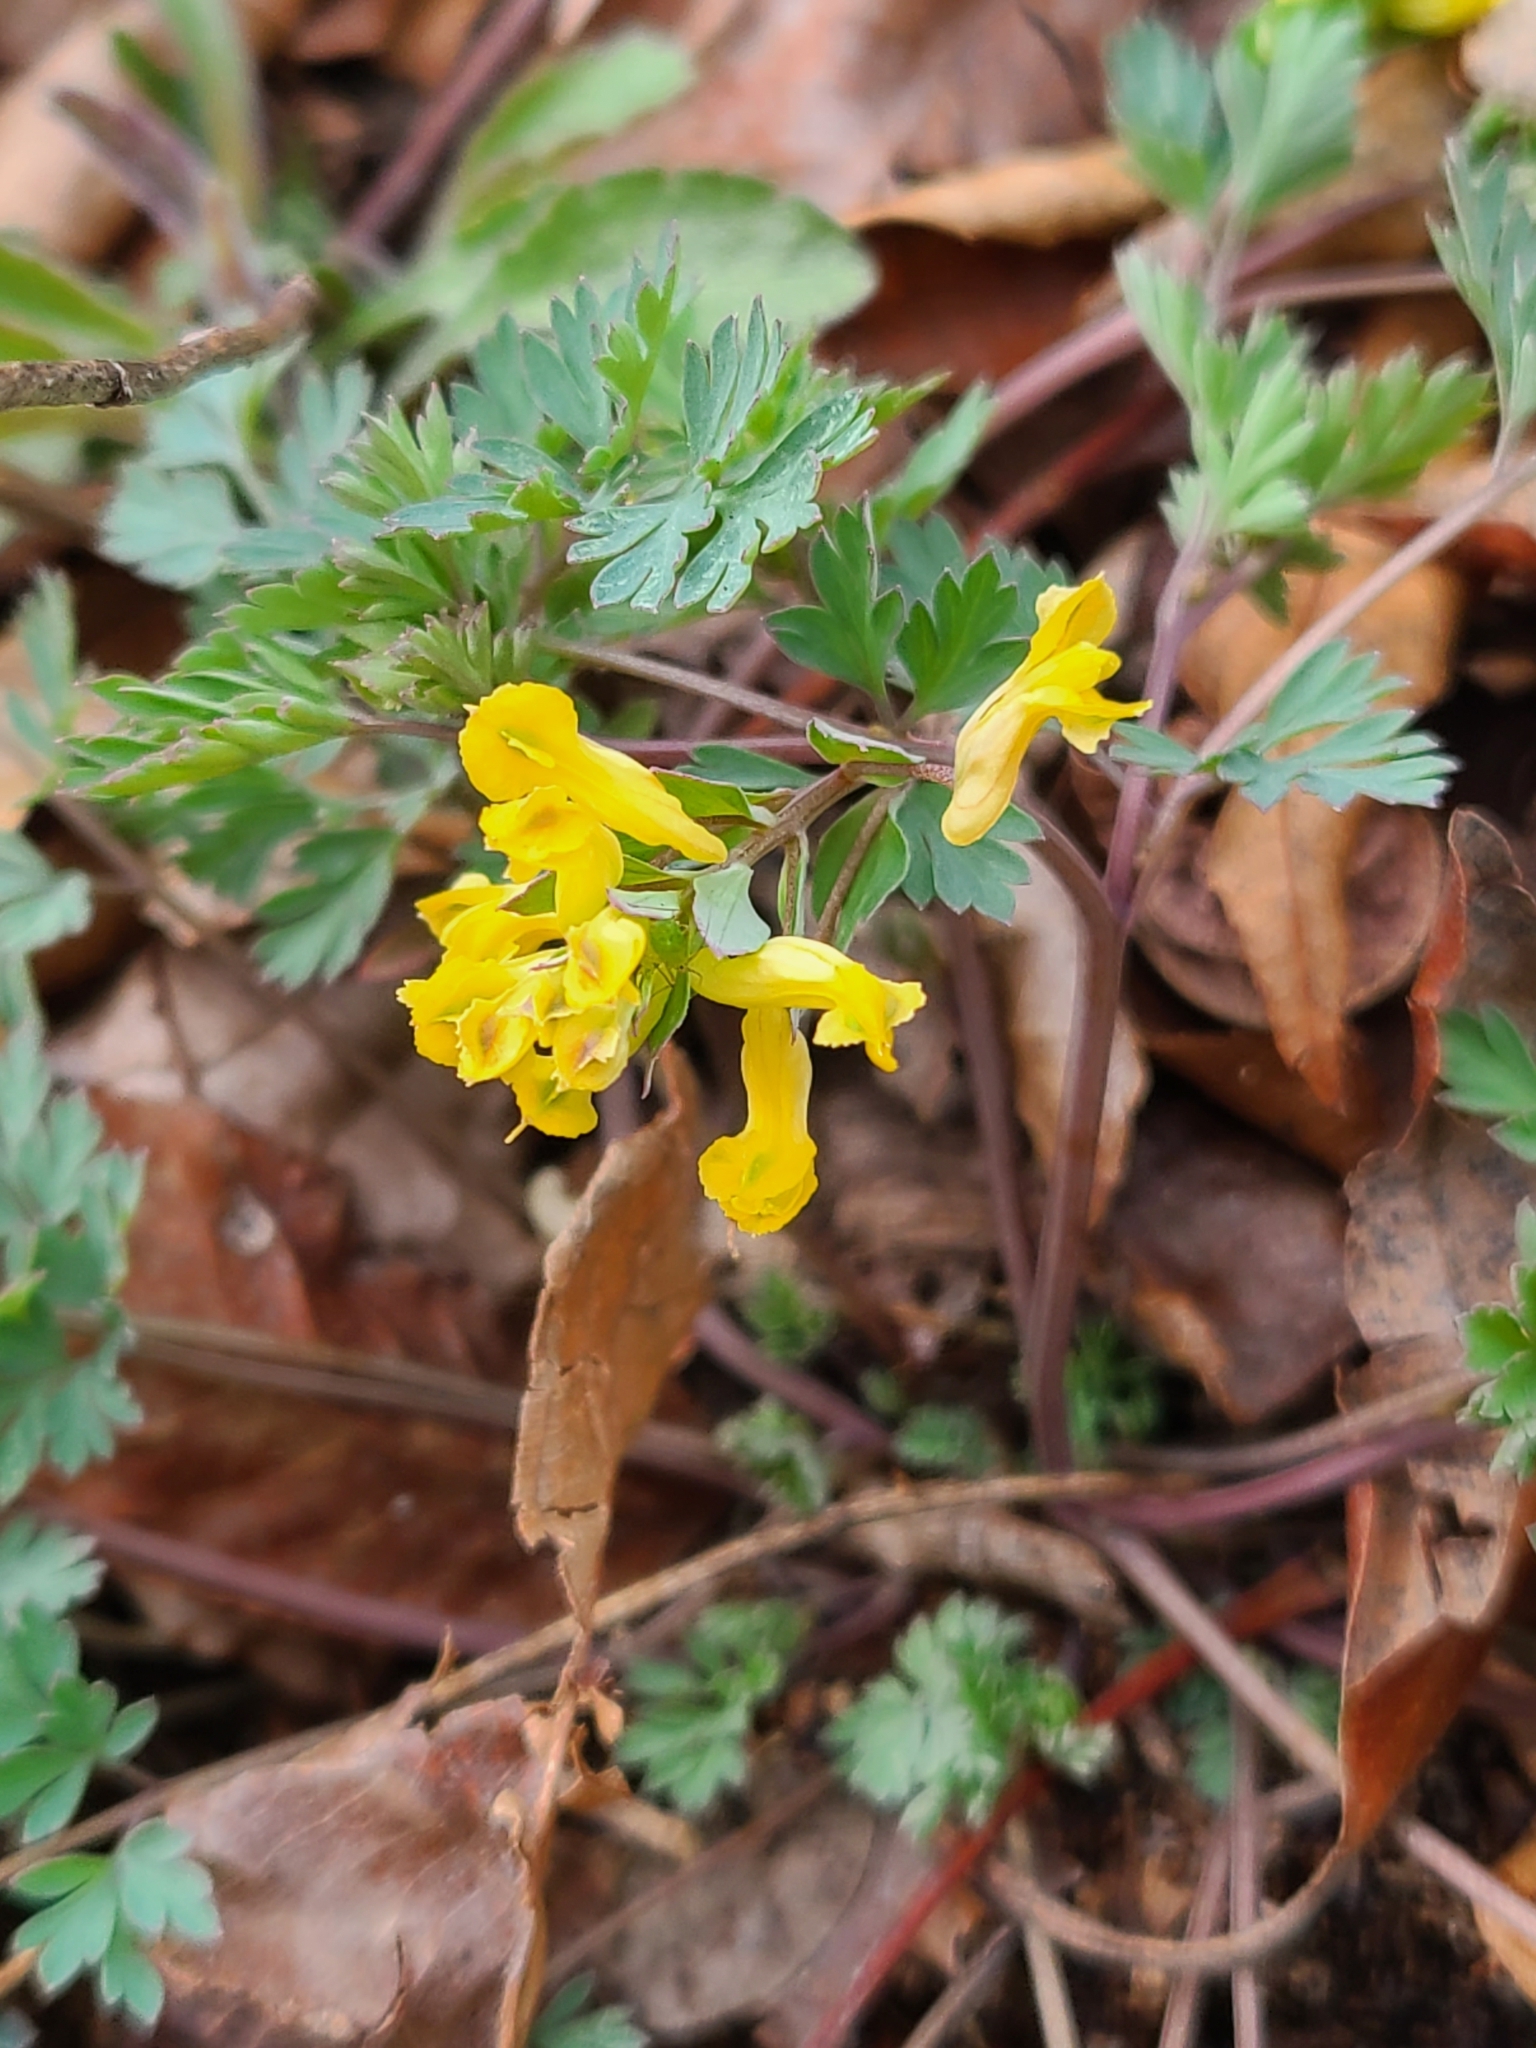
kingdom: Plantae
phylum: Tracheophyta
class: Magnoliopsida
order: Ranunculales
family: Papaveraceae
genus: Corydalis
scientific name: Corydalis flavula
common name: Yellow corydalis
